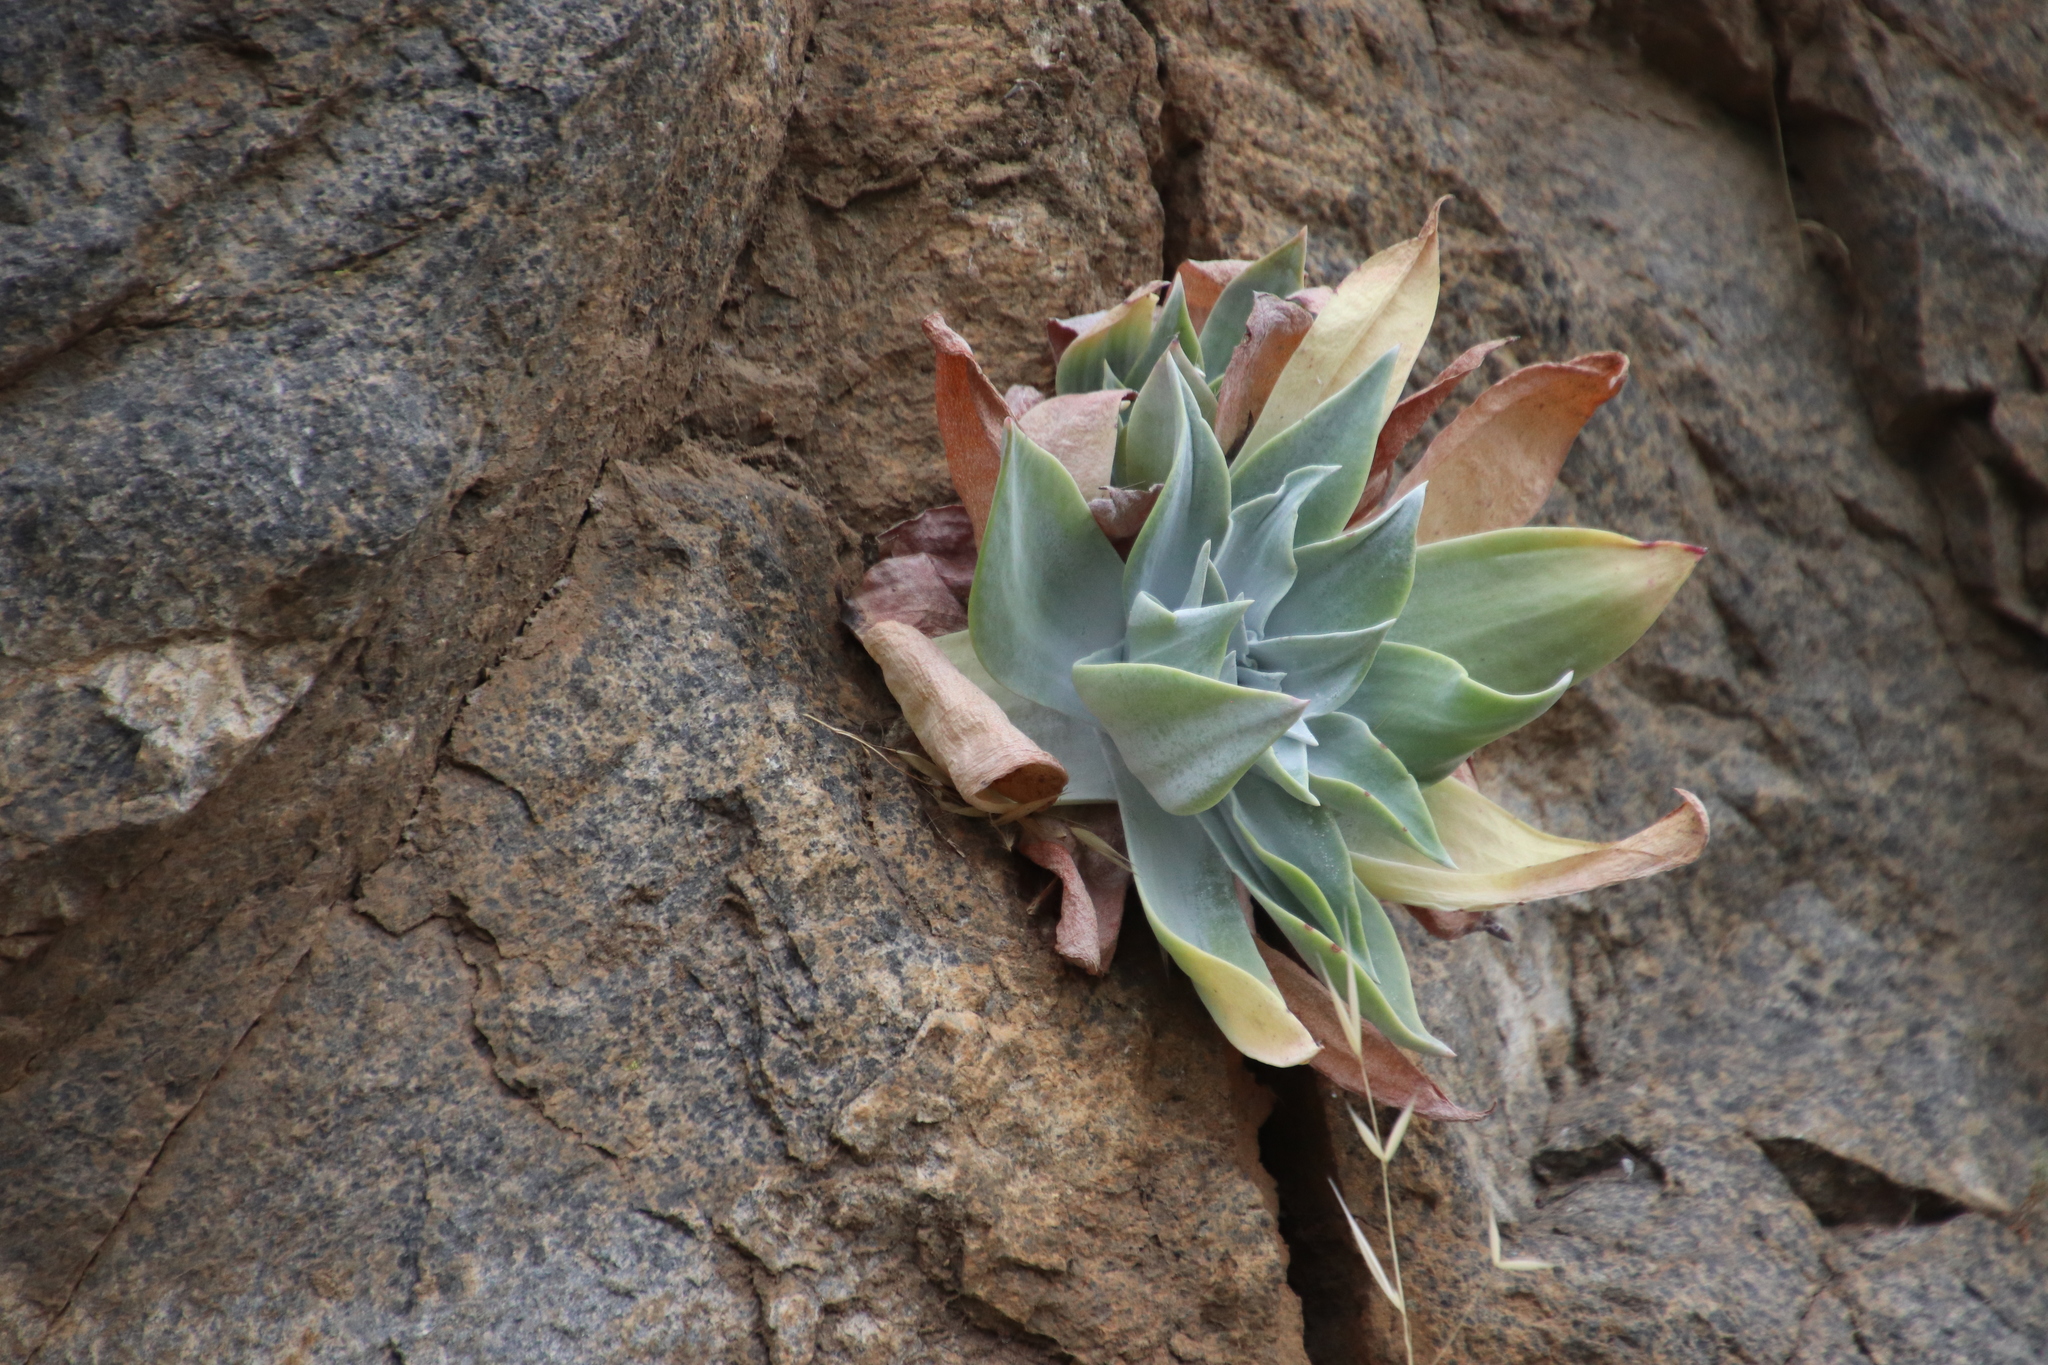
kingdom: Plantae
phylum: Tracheophyta
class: Magnoliopsida
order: Saxifragales
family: Crassulaceae
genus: Dudleya
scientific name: Dudleya pulverulenta
